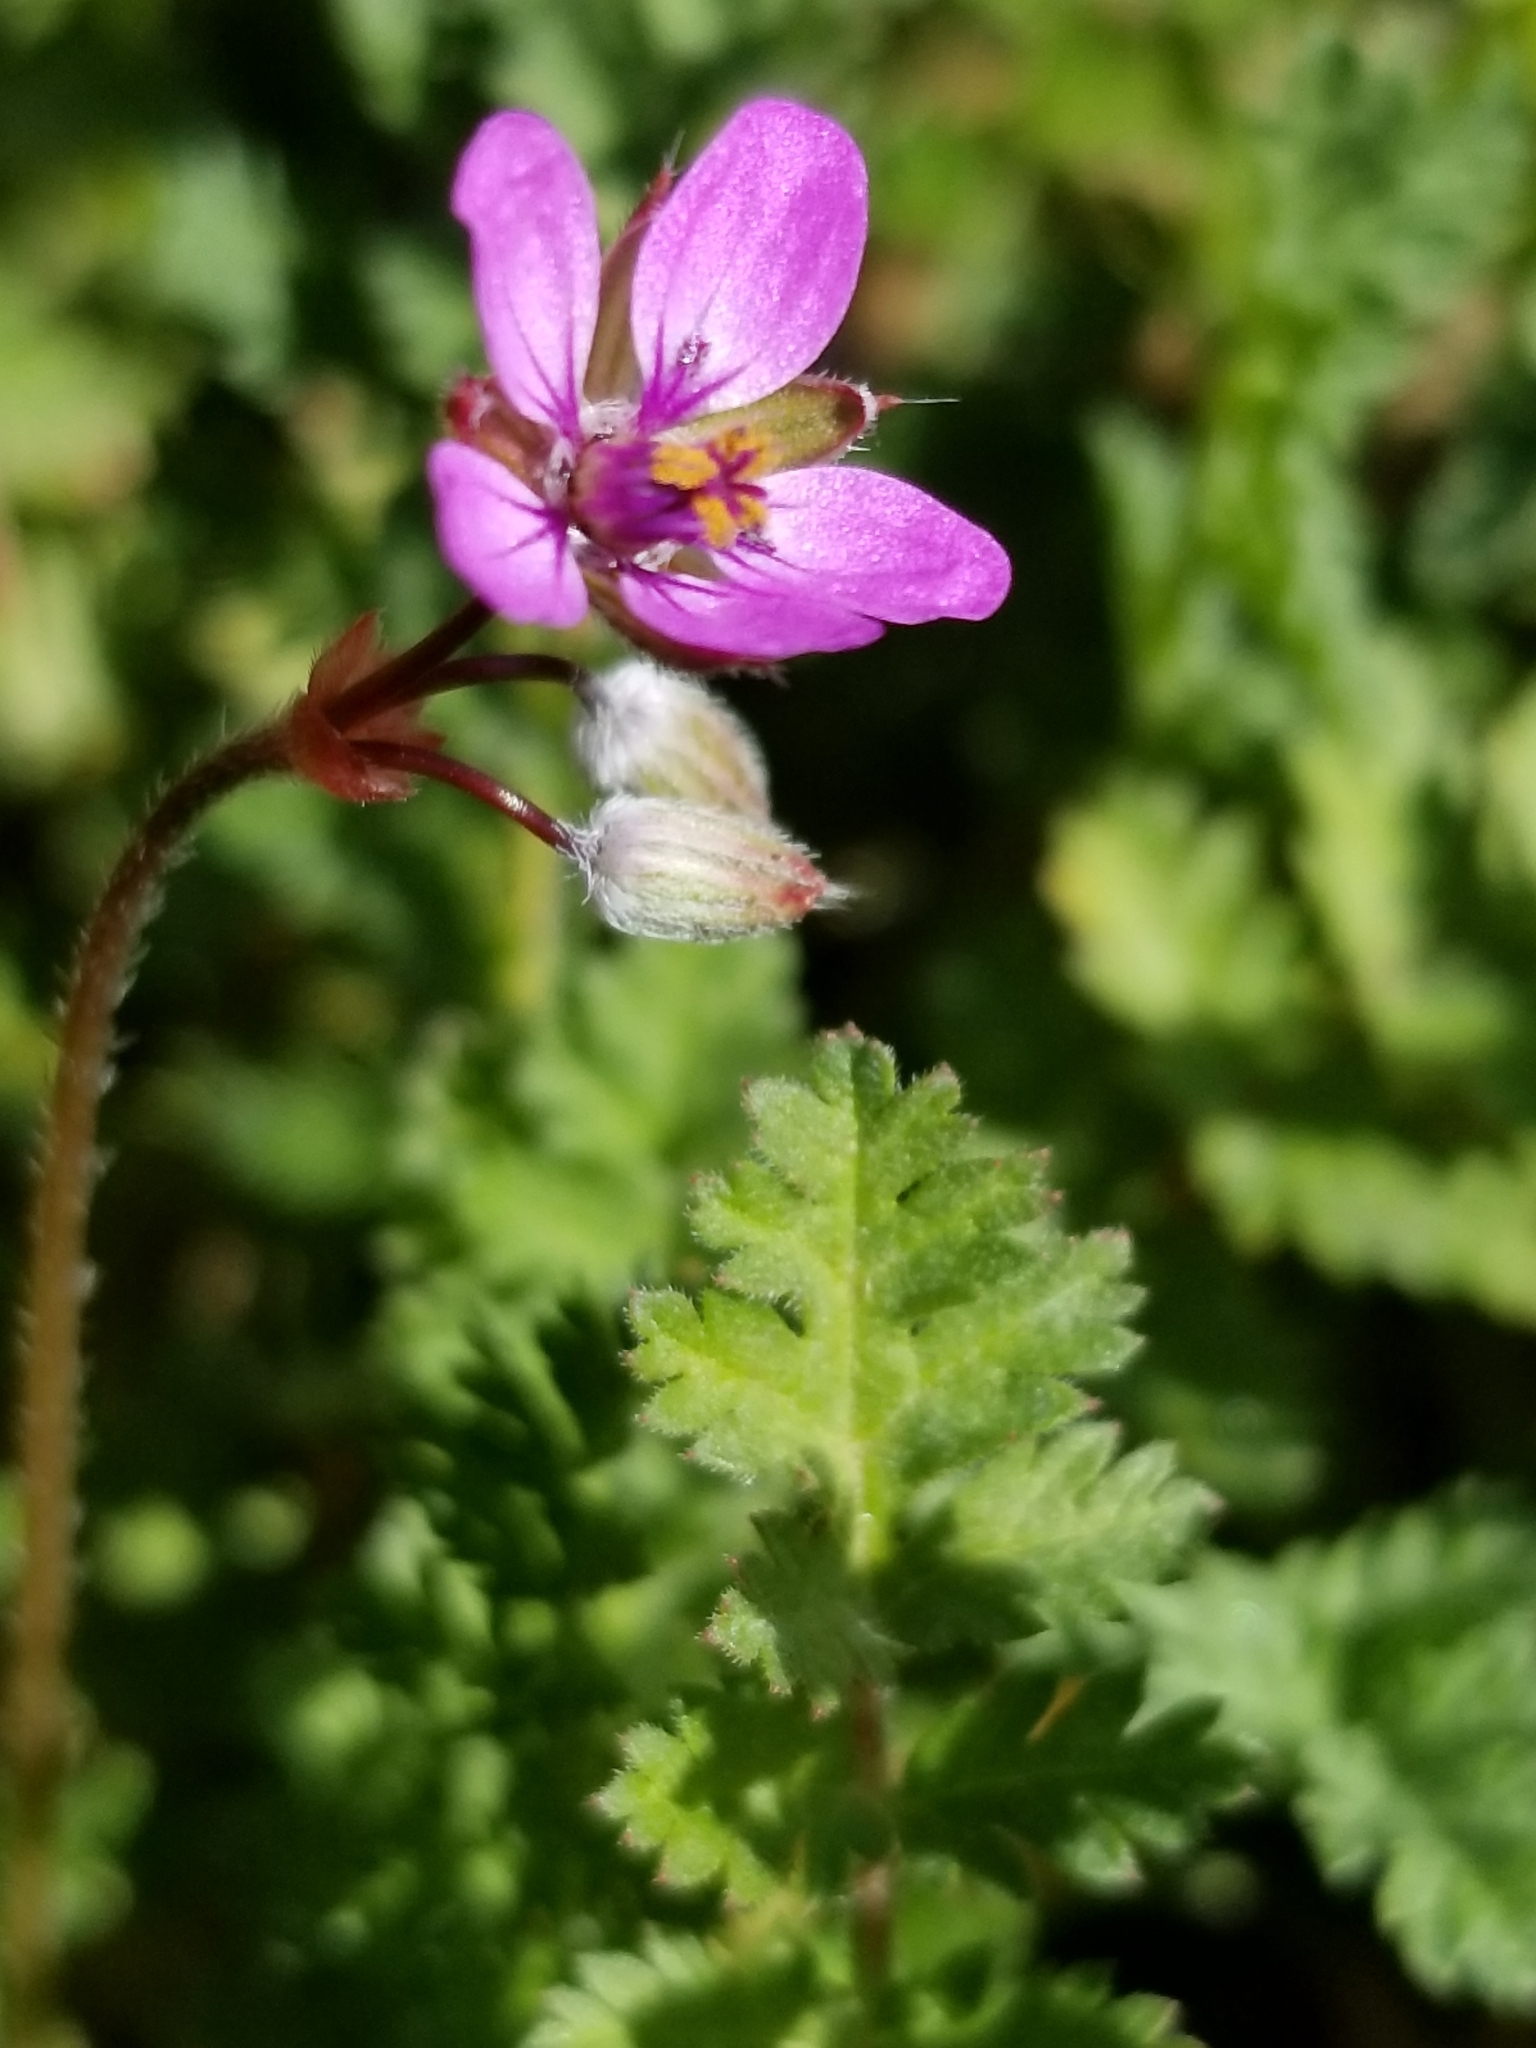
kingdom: Plantae
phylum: Tracheophyta
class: Magnoliopsida
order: Geraniales
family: Geraniaceae
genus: Erodium
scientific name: Erodium cicutarium
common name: Common stork's-bill
